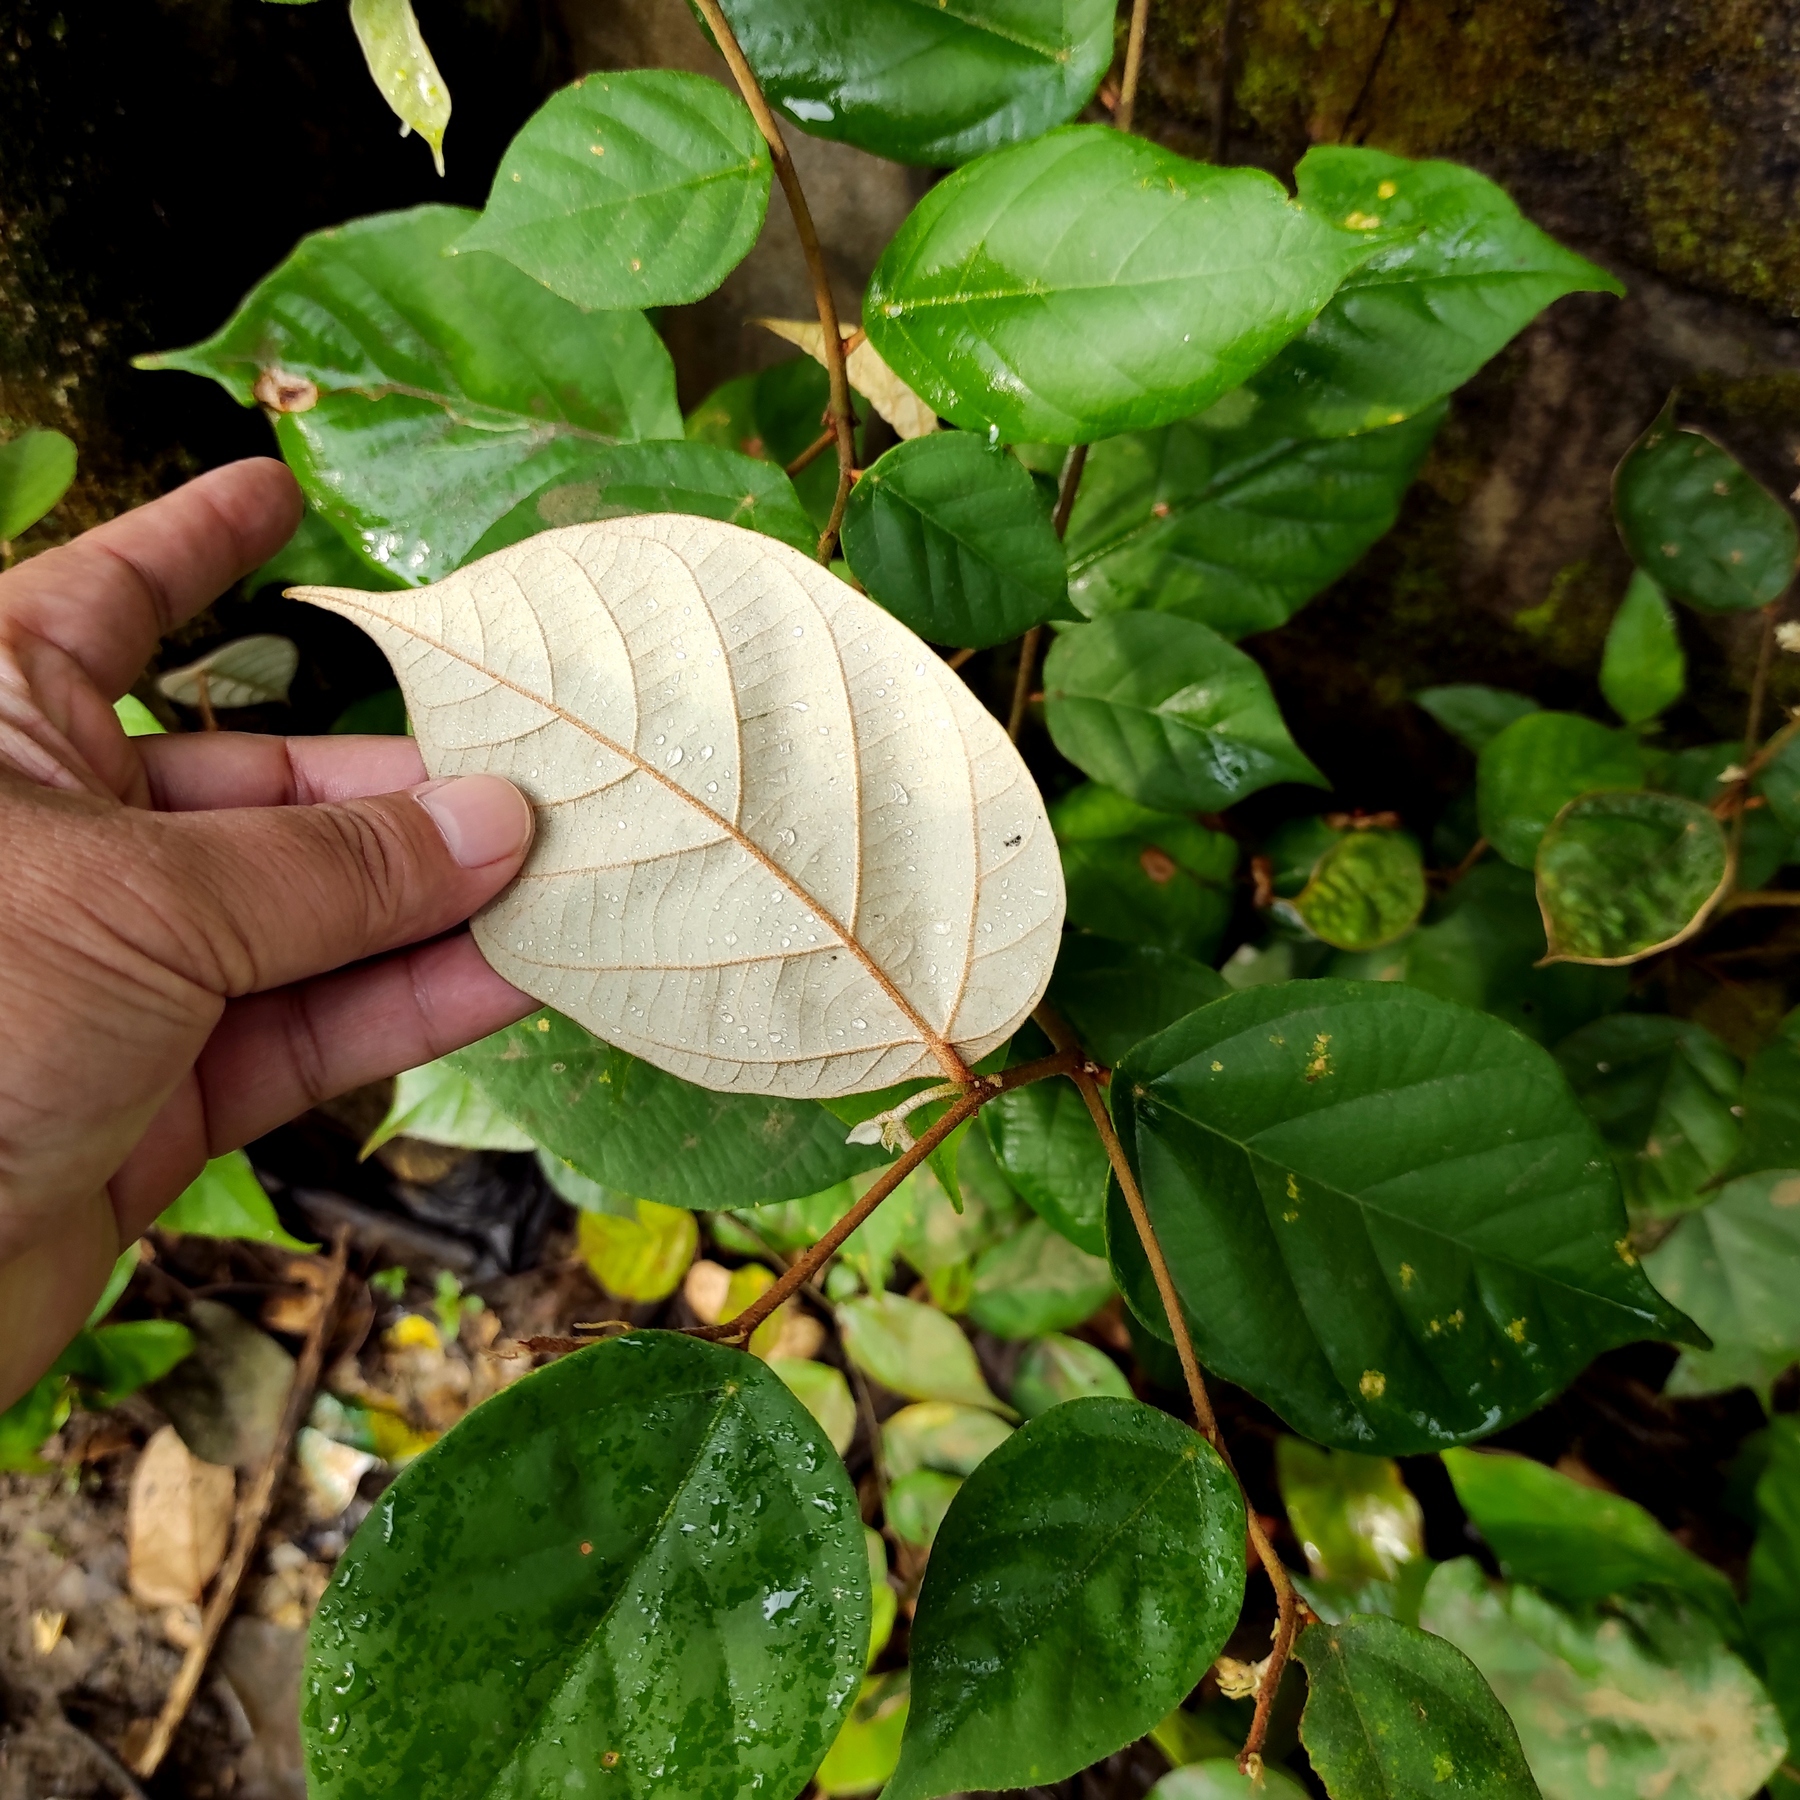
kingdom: Plantae
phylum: Tracheophyta
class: Magnoliopsida
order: Malvales
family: Malvaceae
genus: Pterospermum
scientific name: Pterospermum javanicum
